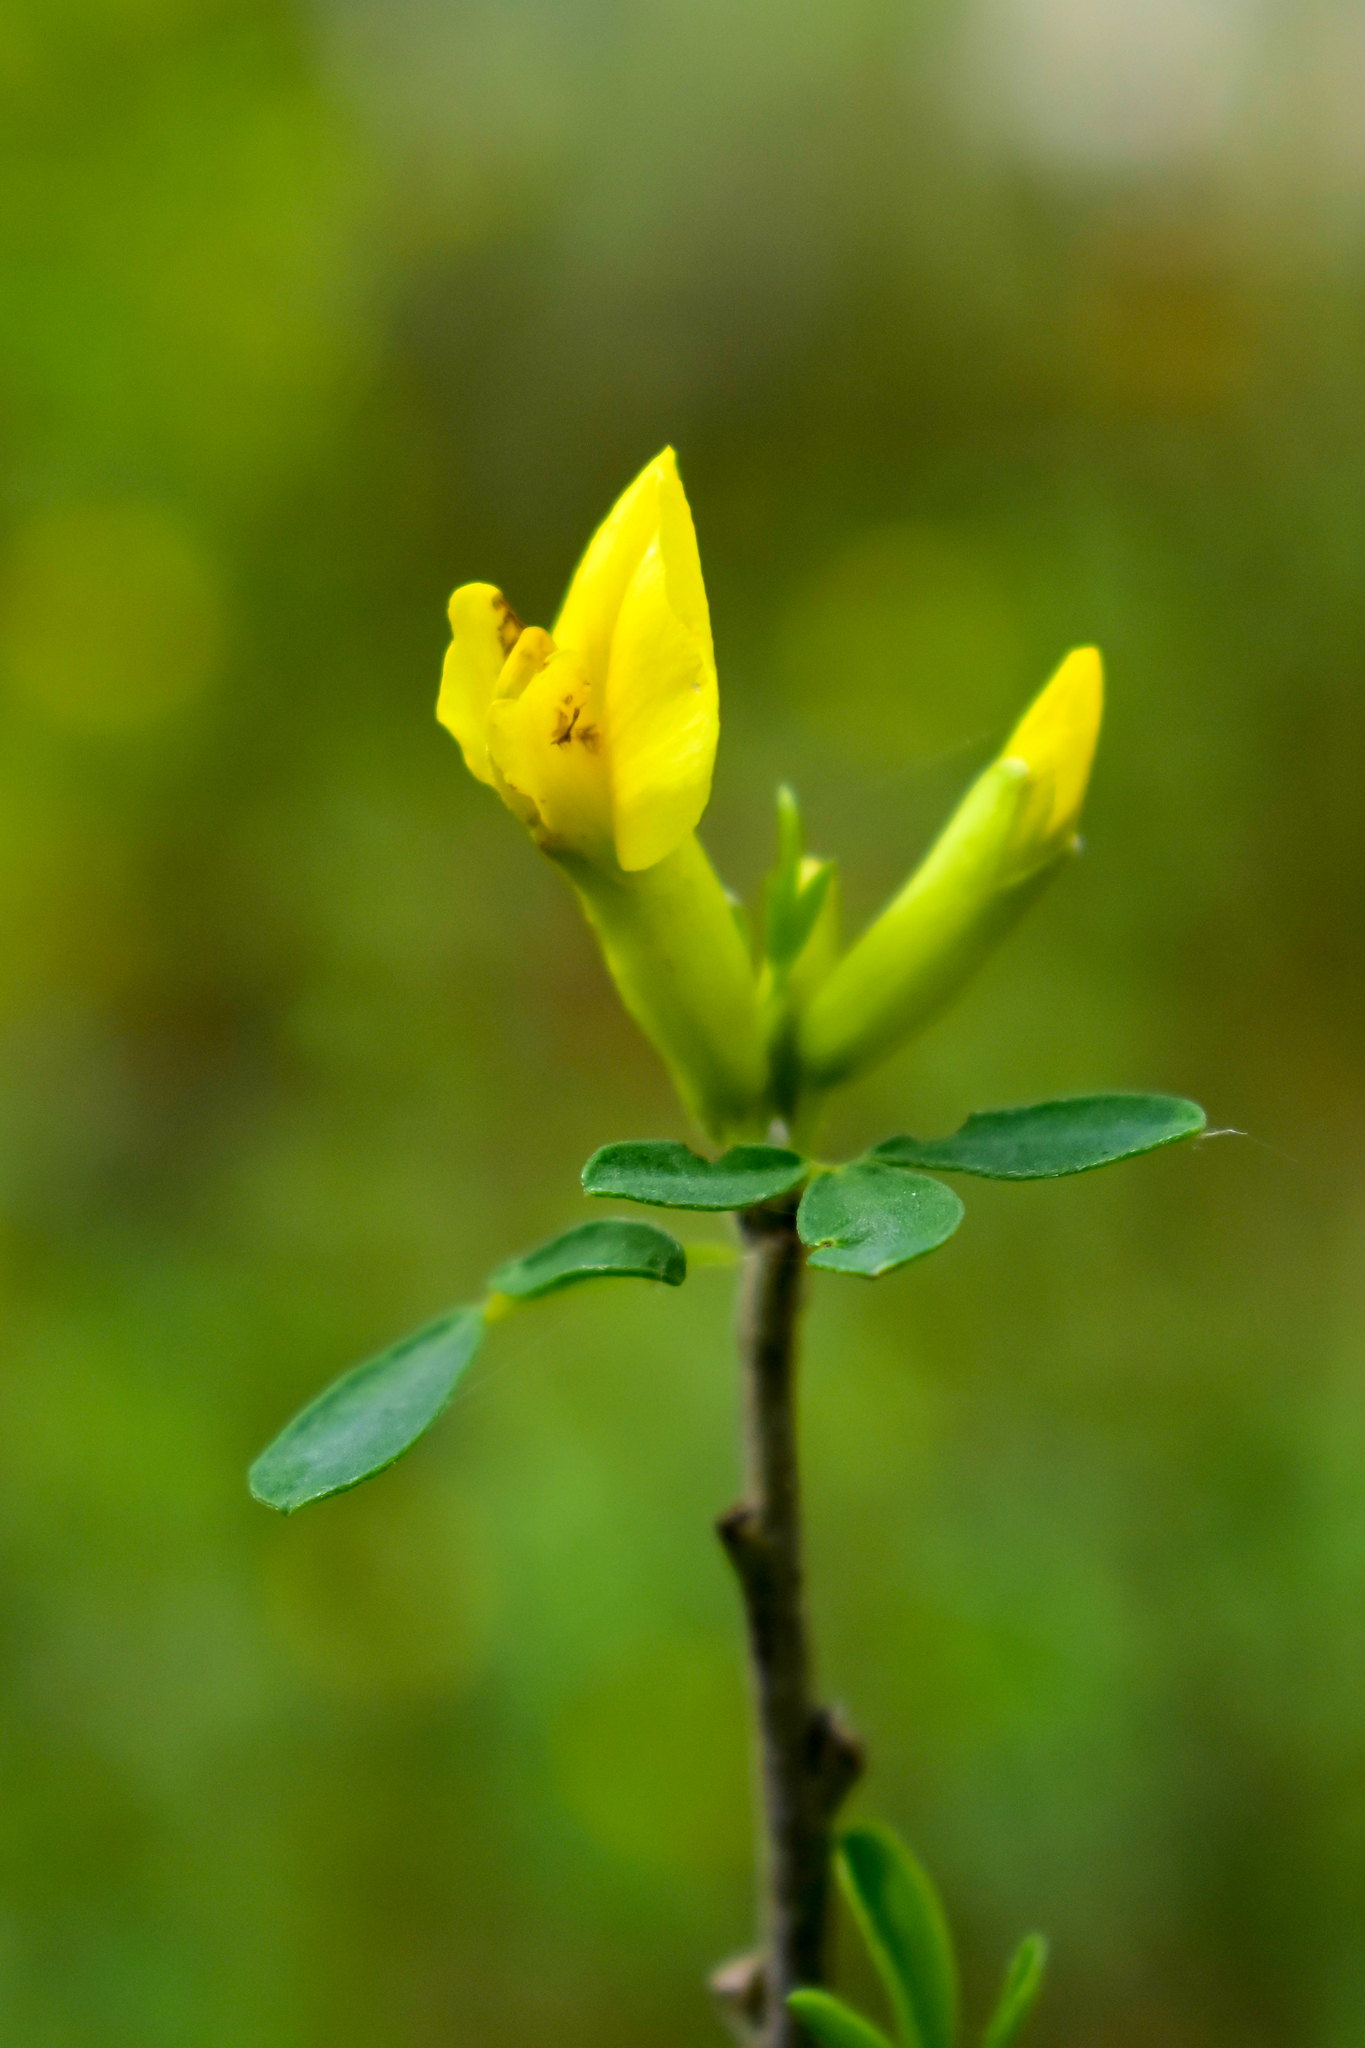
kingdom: Plantae
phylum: Tracheophyta
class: Magnoliopsida
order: Fabales
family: Fabaceae
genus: Chamaecytisus
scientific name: Chamaecytisus ruthenicus
